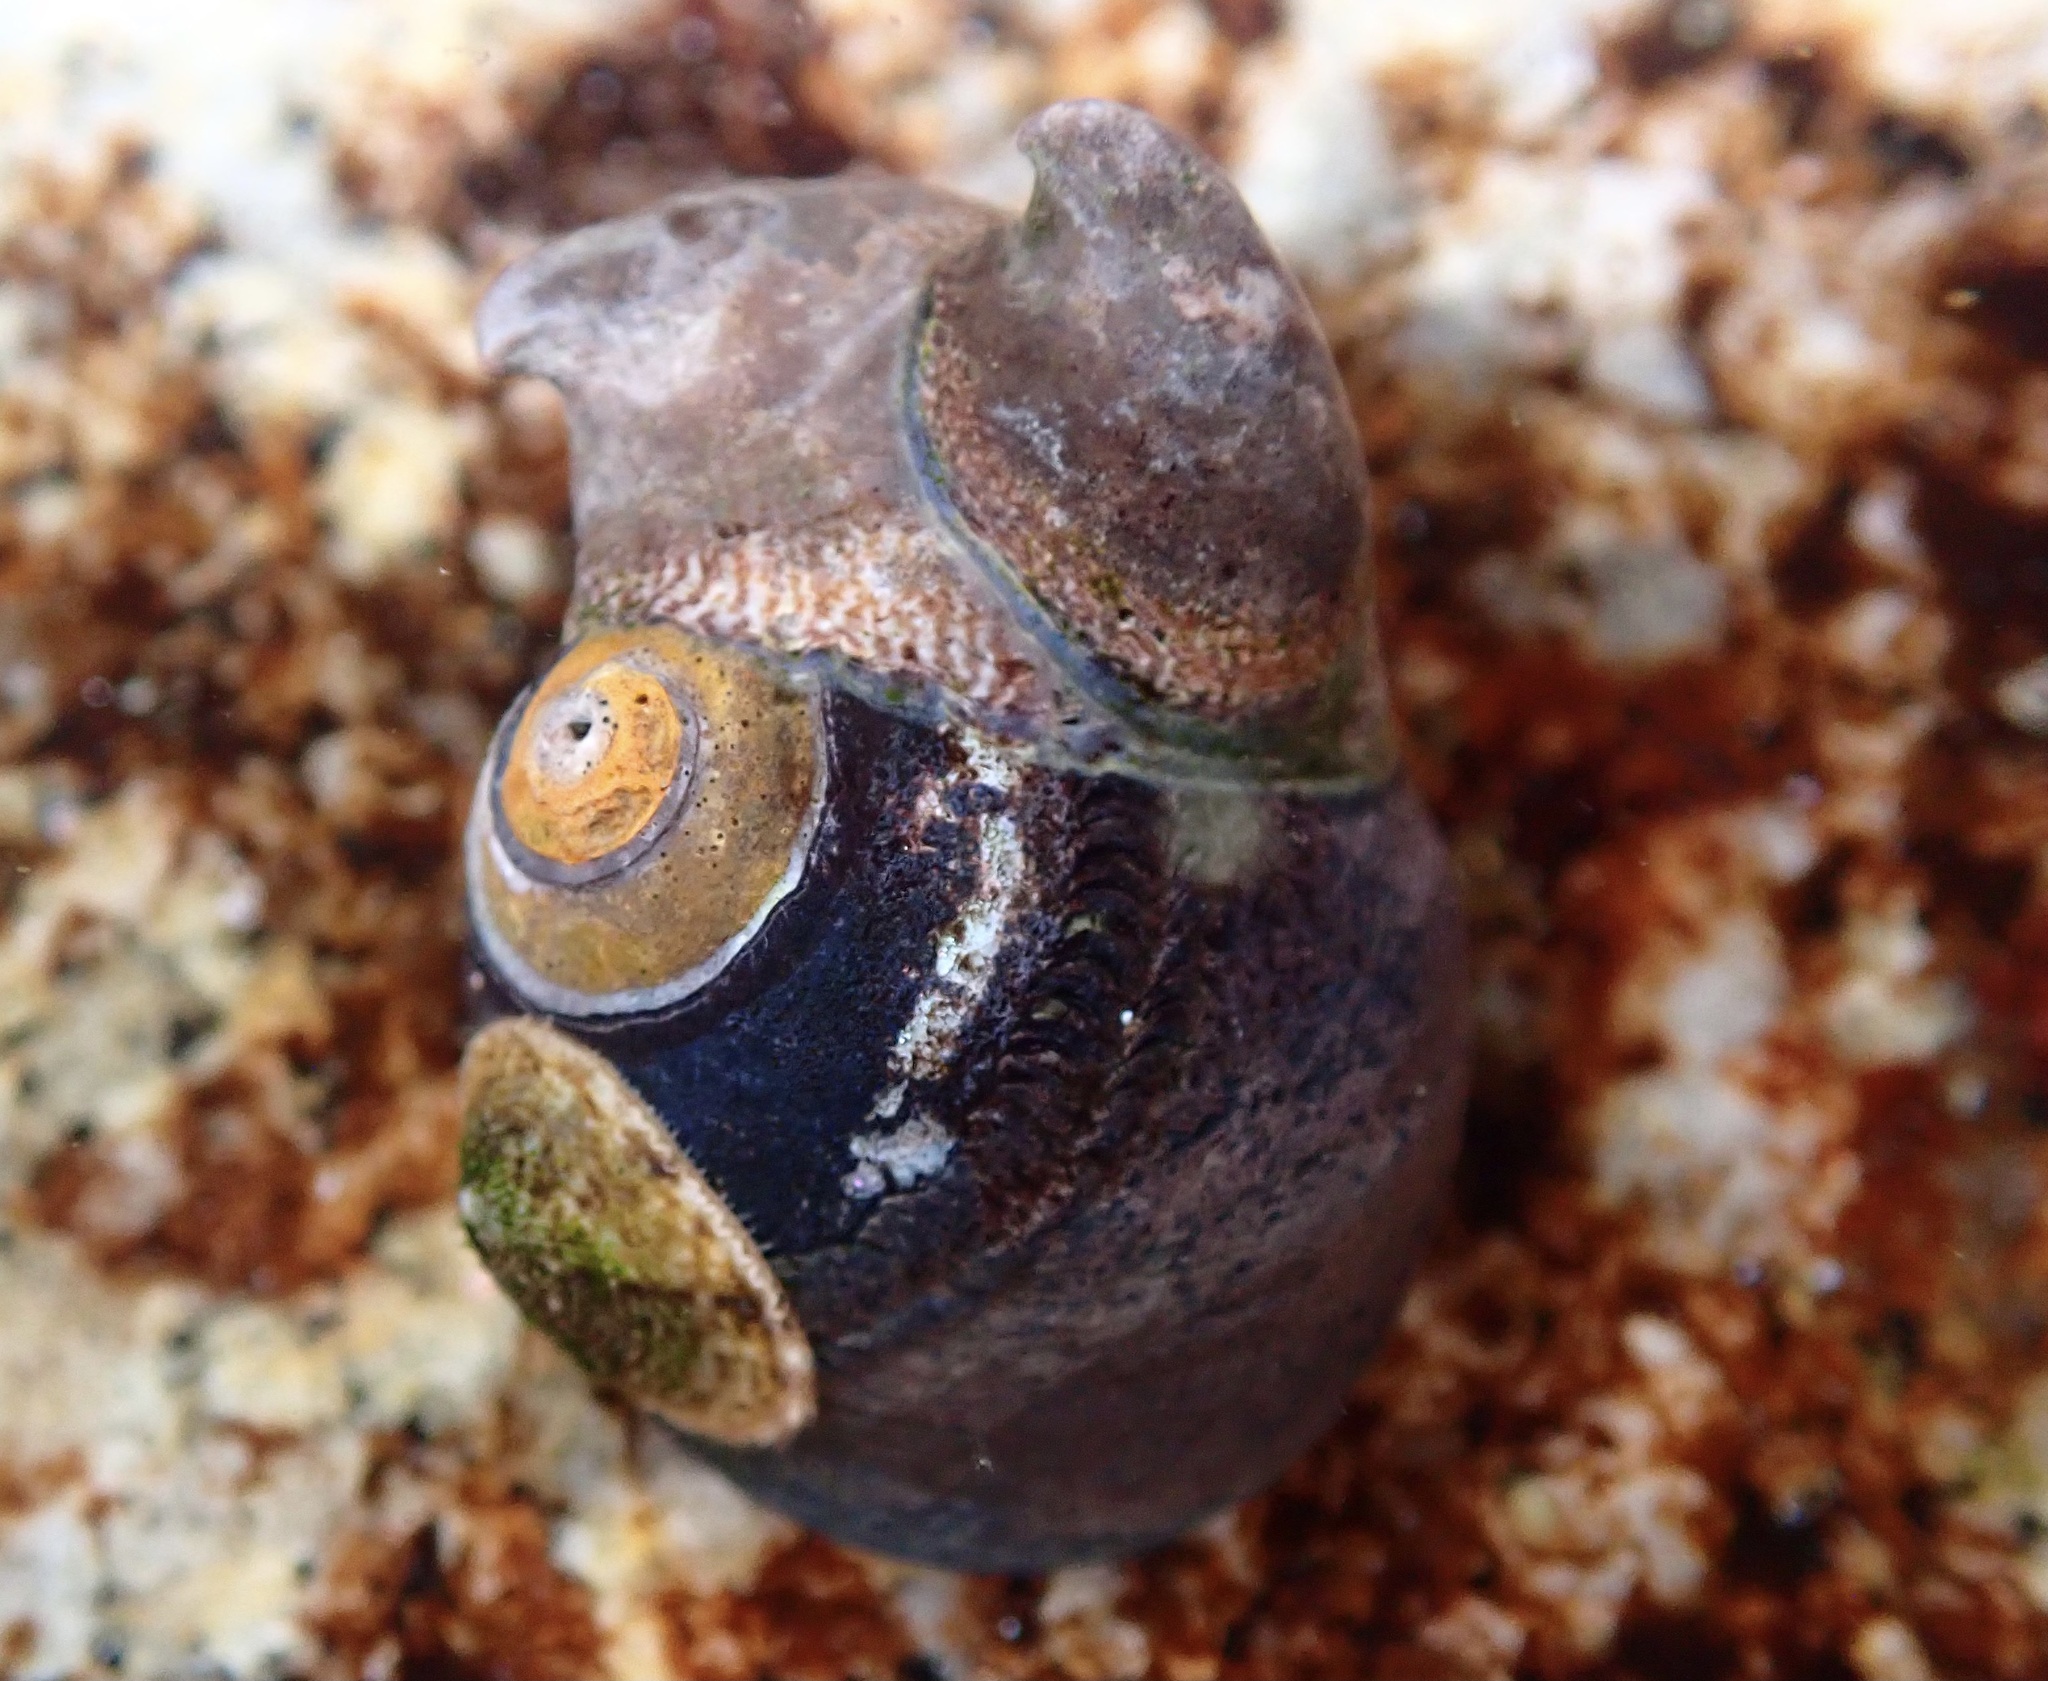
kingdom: Animalia
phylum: Mollusca
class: Gastropoda
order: Littorinimorpha
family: Calyptraeidae
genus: Crepidula
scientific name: Crepidula adunca
